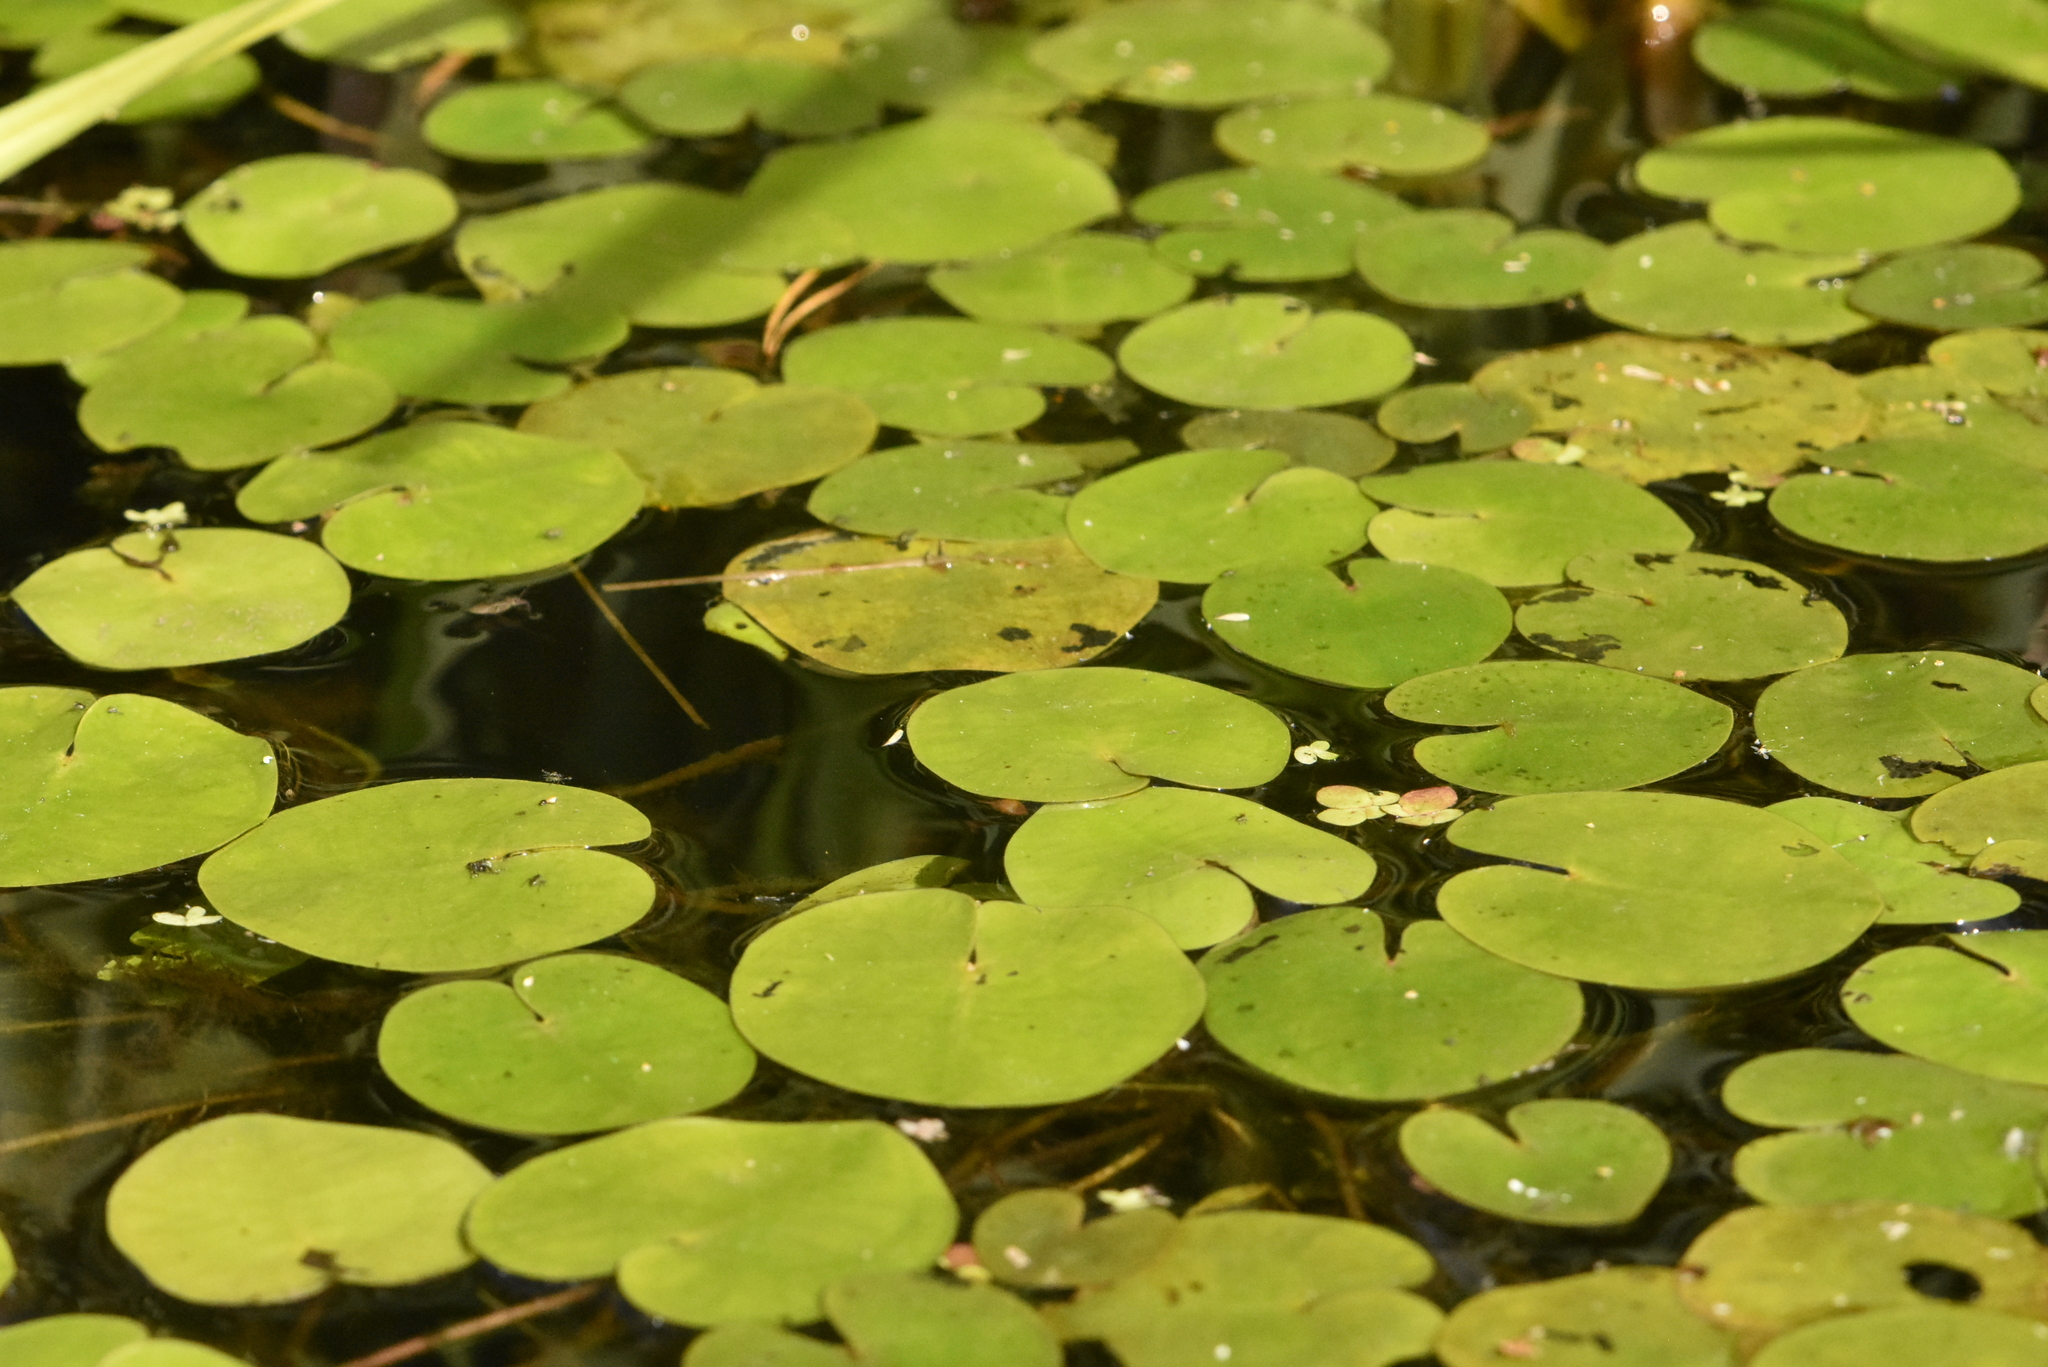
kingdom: Plantae
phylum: Tracheophyta
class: Liliopsida
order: Alismatales
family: Hydrocharitaceae
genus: Hydrocharis
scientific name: Hydrocharis morsus-ranae
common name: Frogbit
